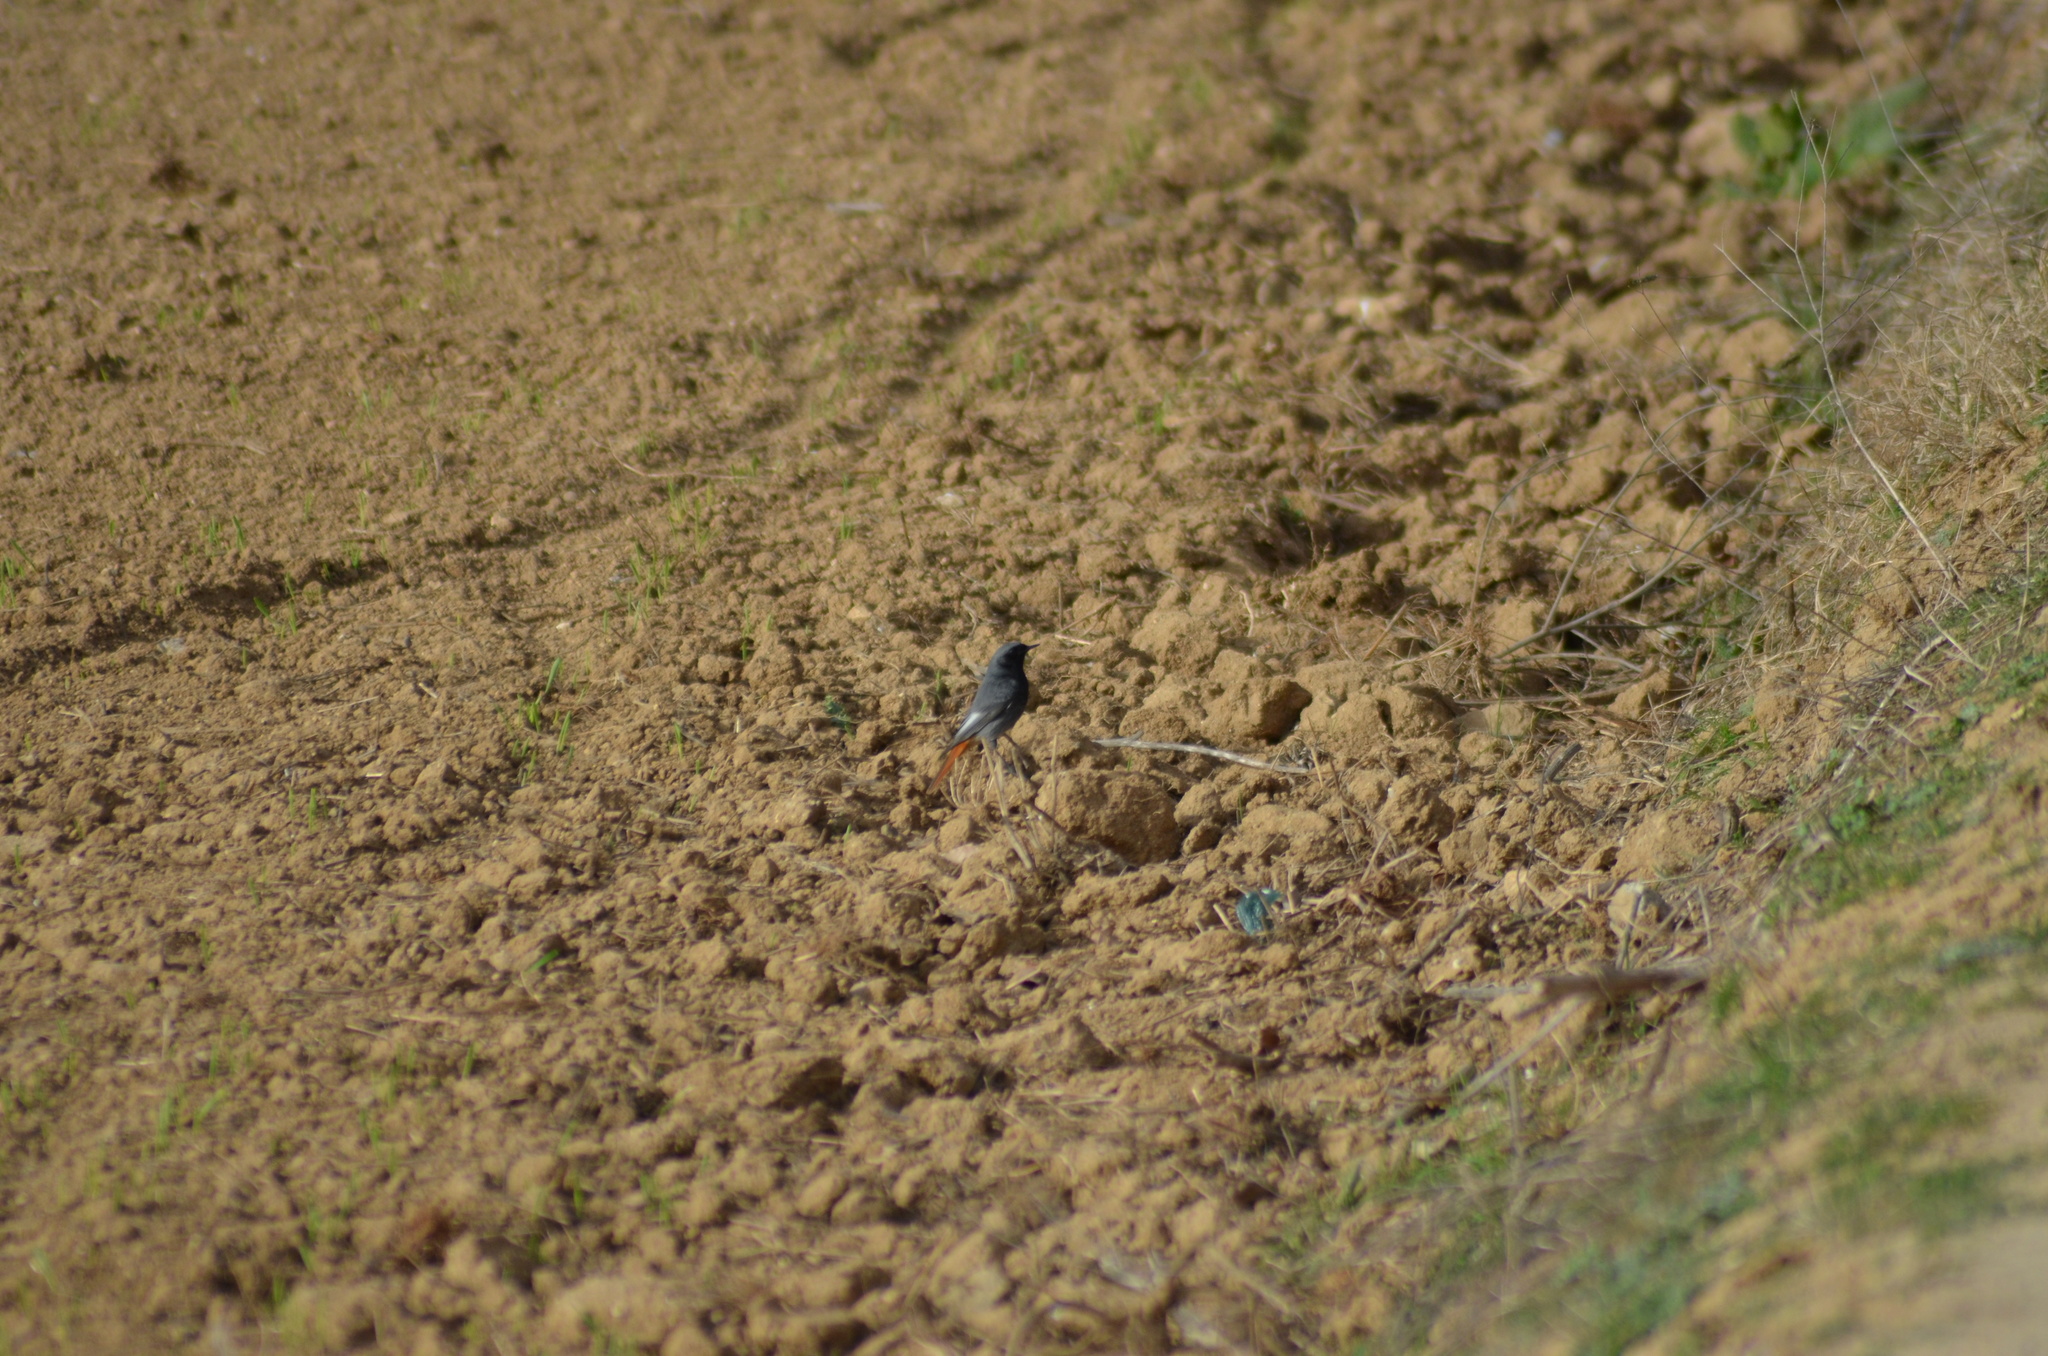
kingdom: Animalia
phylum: Chordata
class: Aves
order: Passeriformes
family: Muscicapidae
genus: Phoenicurus
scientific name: Phoenicurus ochruros
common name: Black redstart
